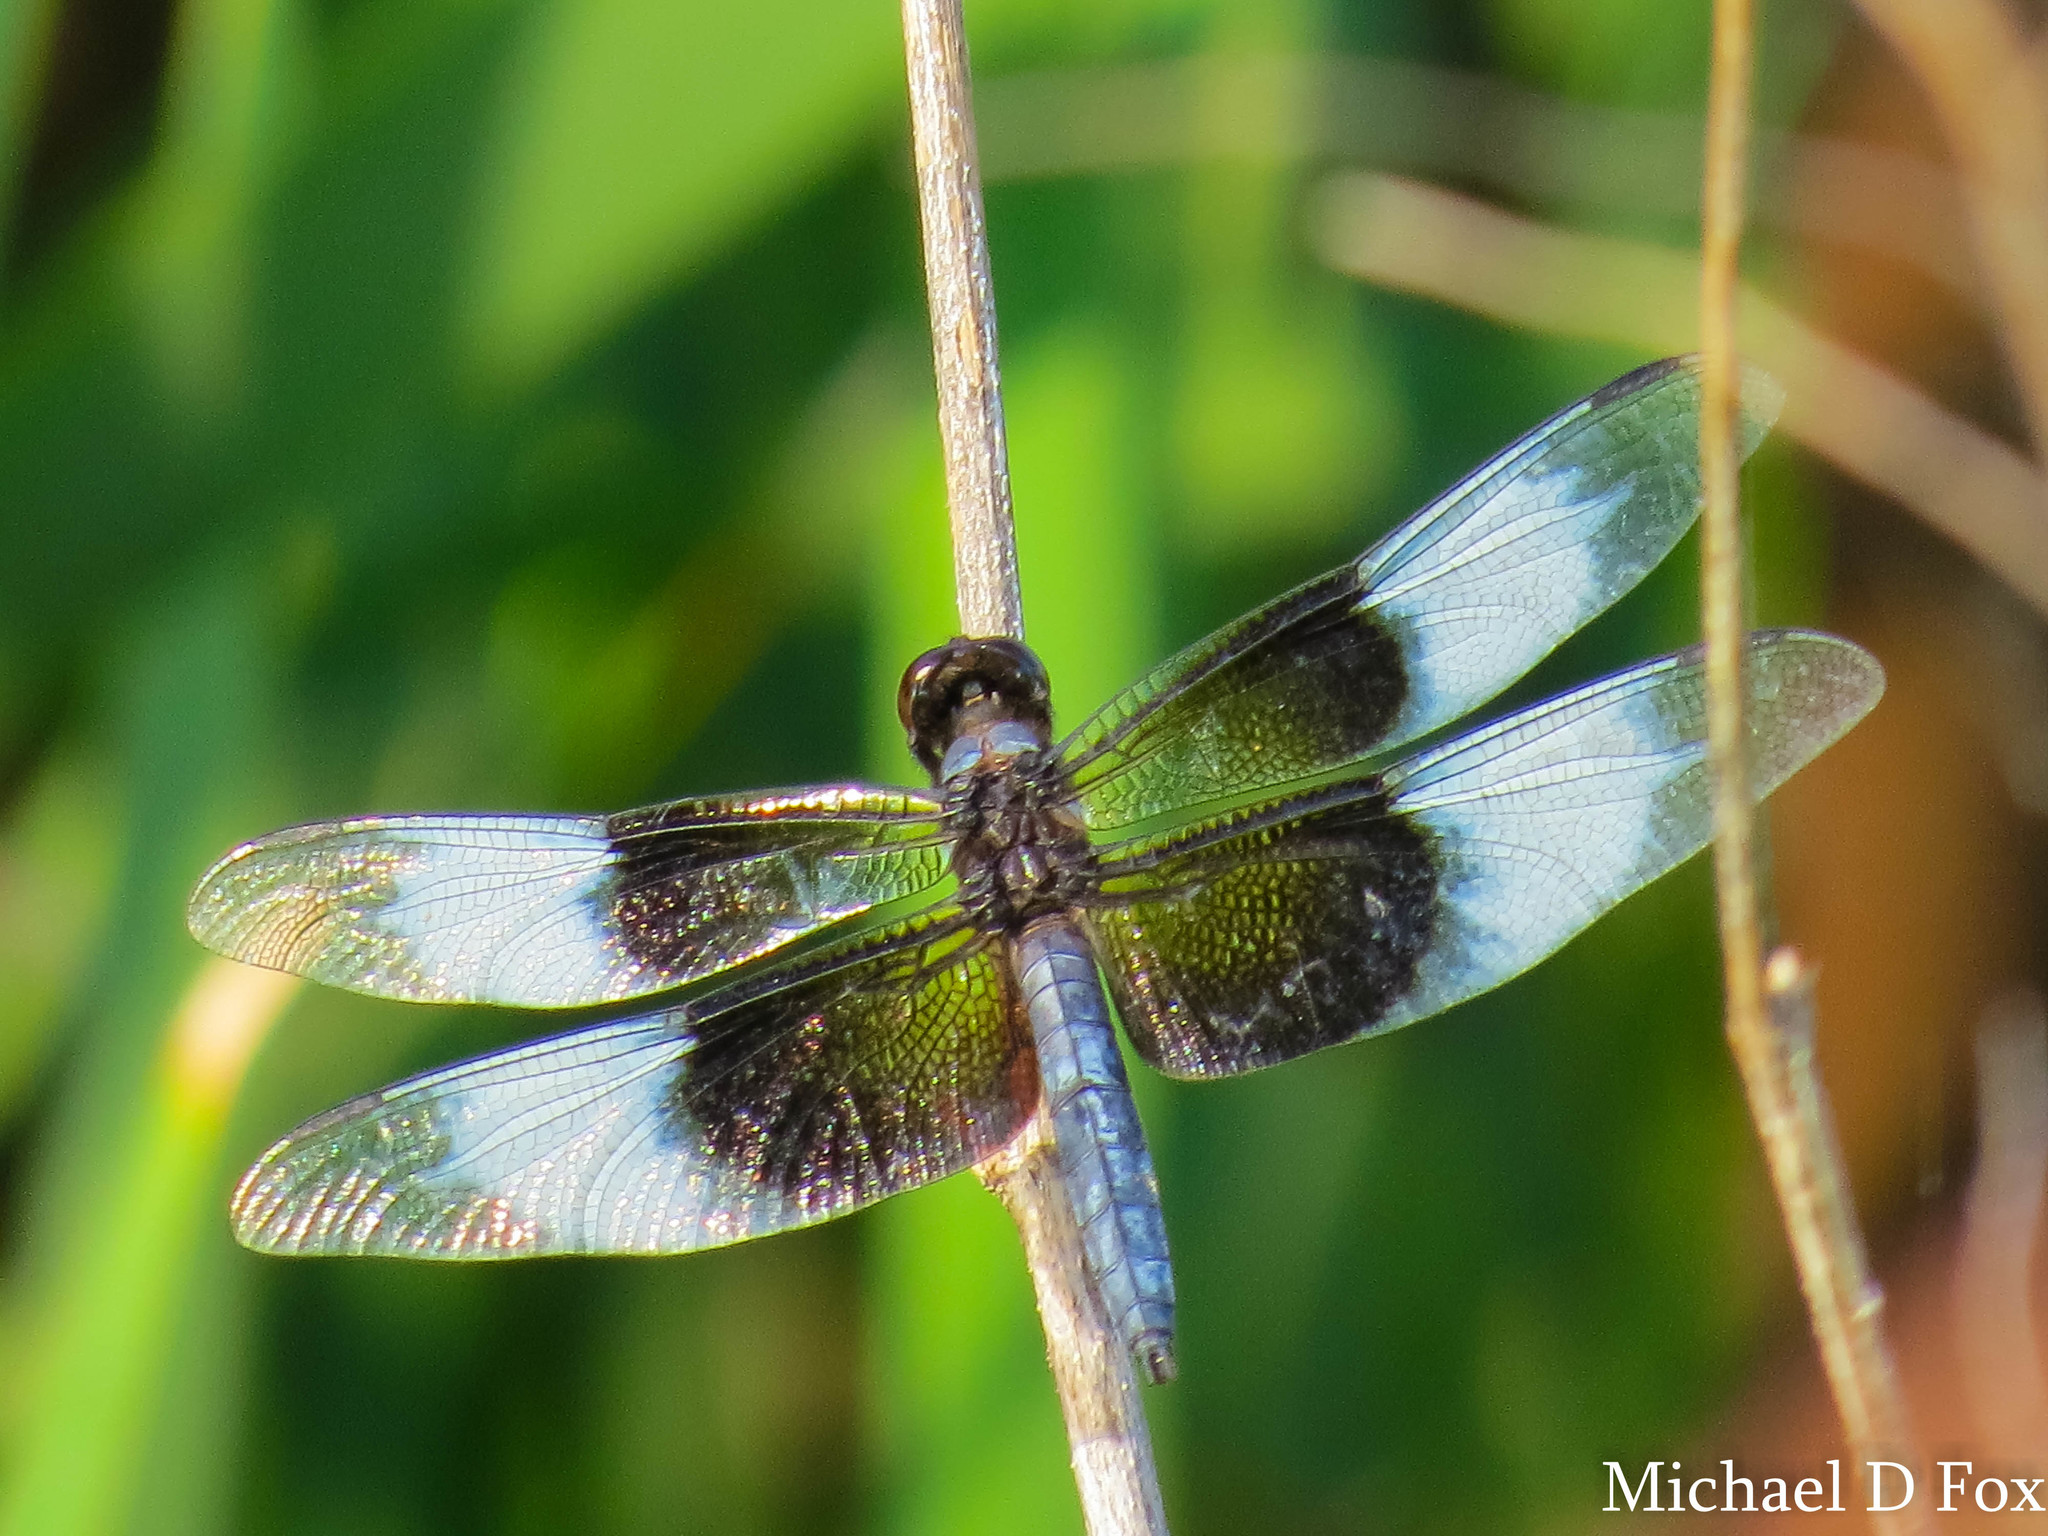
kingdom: Animalia
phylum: Arthropoda
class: Insecta
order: Odonata
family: Libellulidae
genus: Libellula
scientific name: Libellula luctuosa
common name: Widow skimmer
